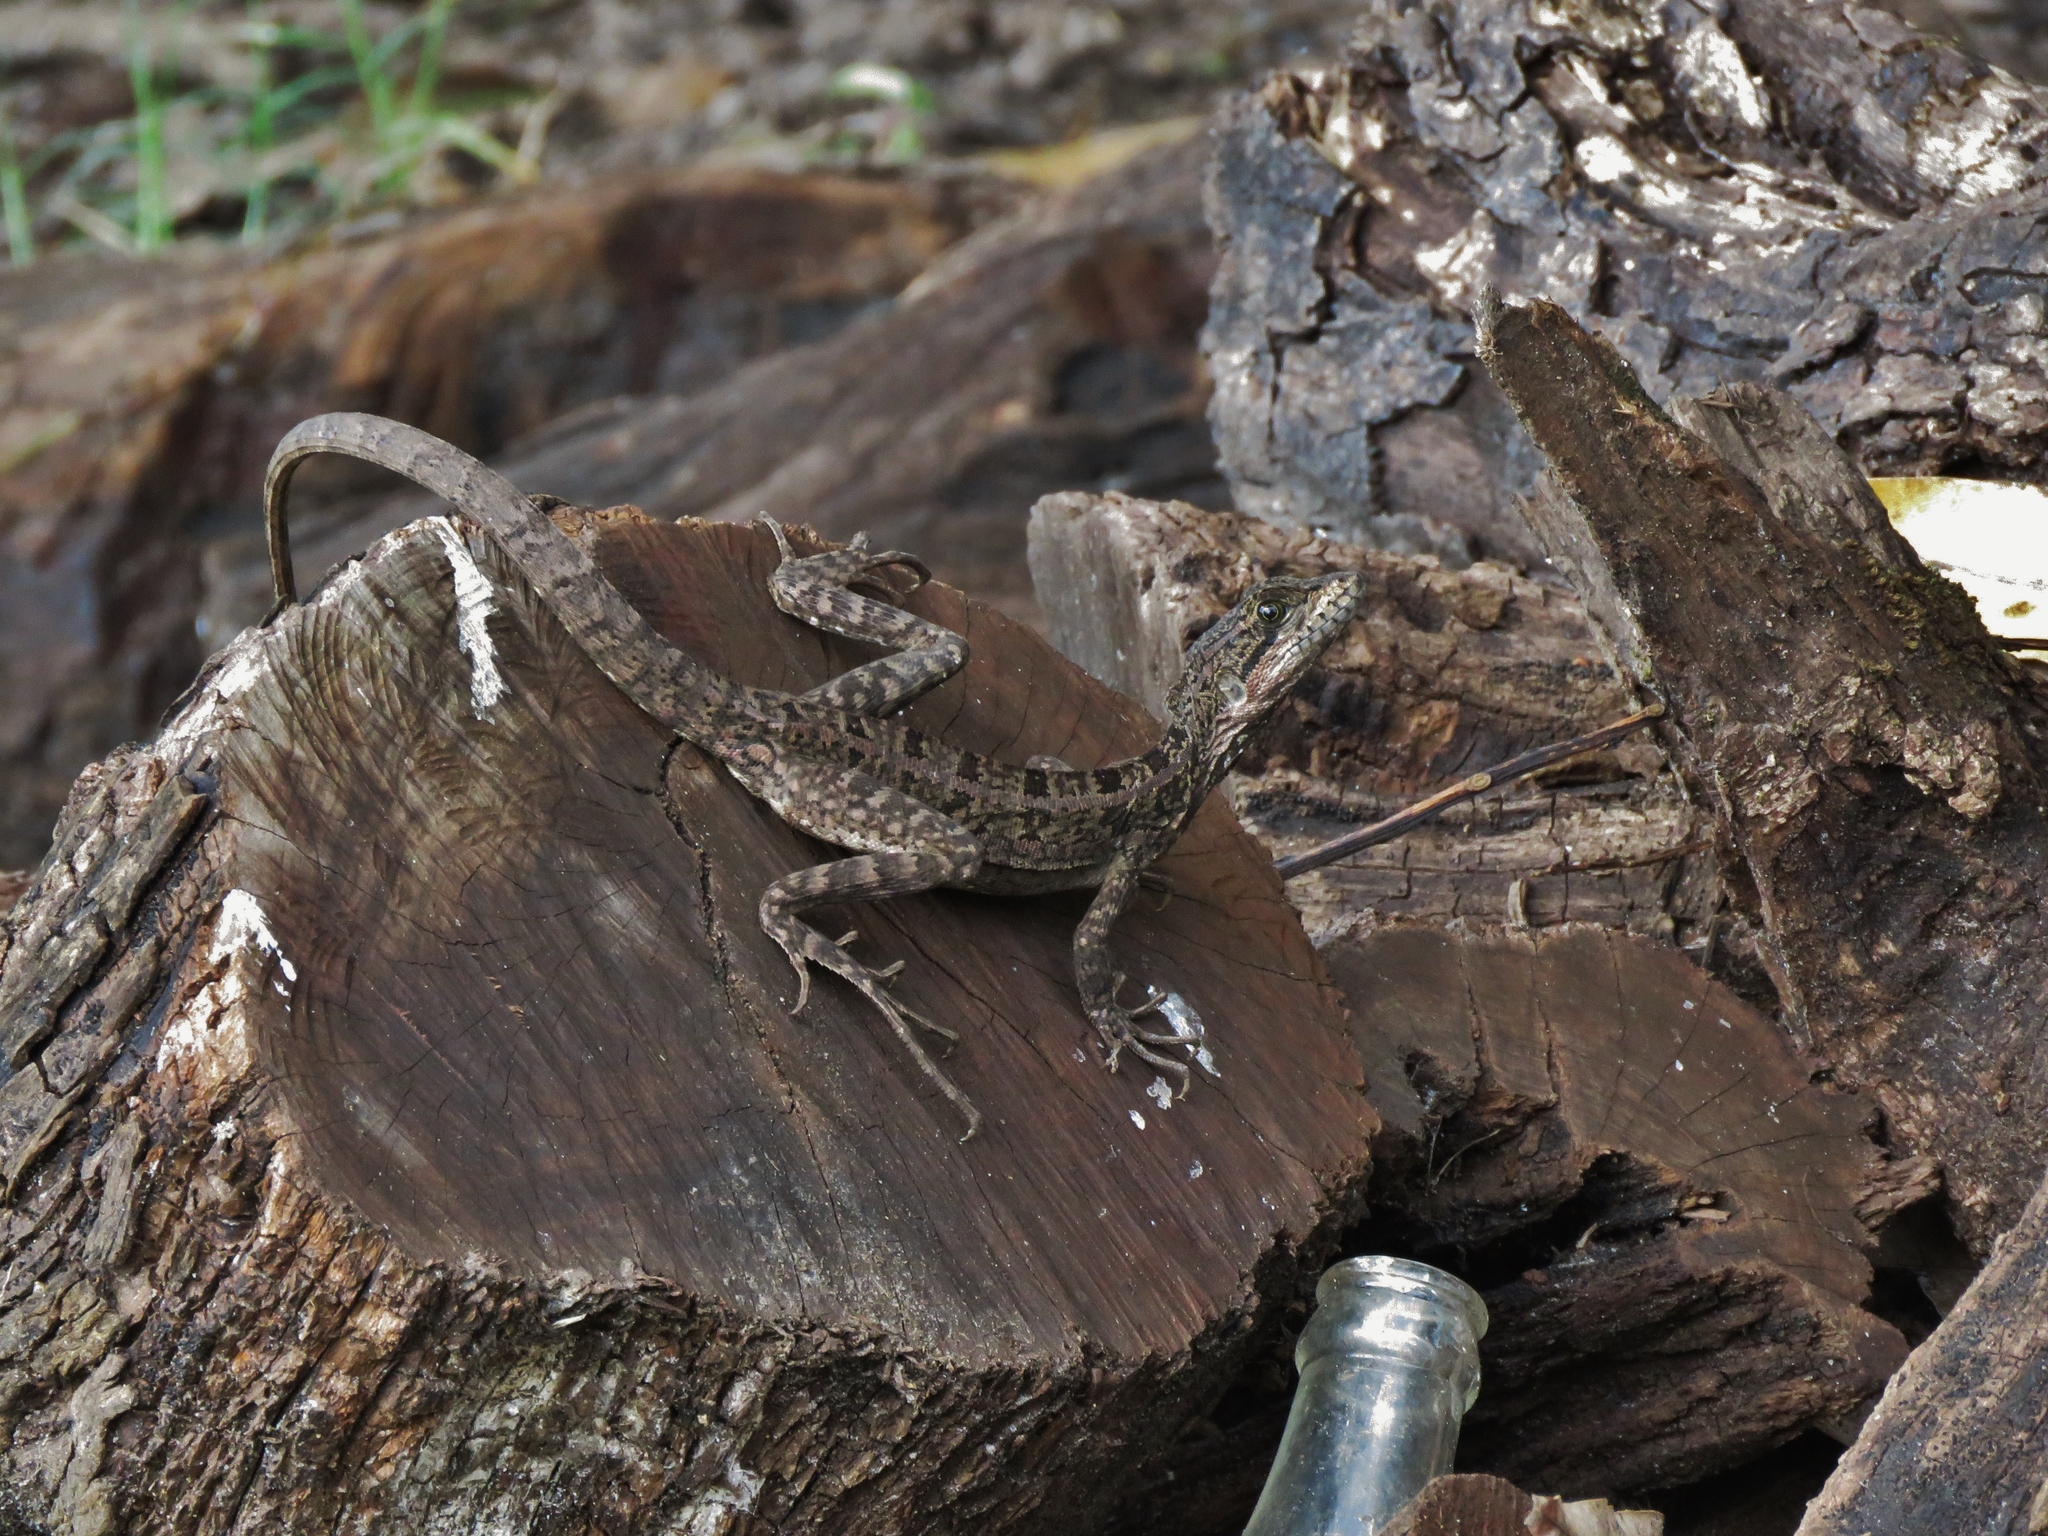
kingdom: Animalia
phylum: Chordata
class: Squamata
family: Corytophanidae
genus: Basiliscus
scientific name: Basiliscus vittatus
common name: Brown basilisk
